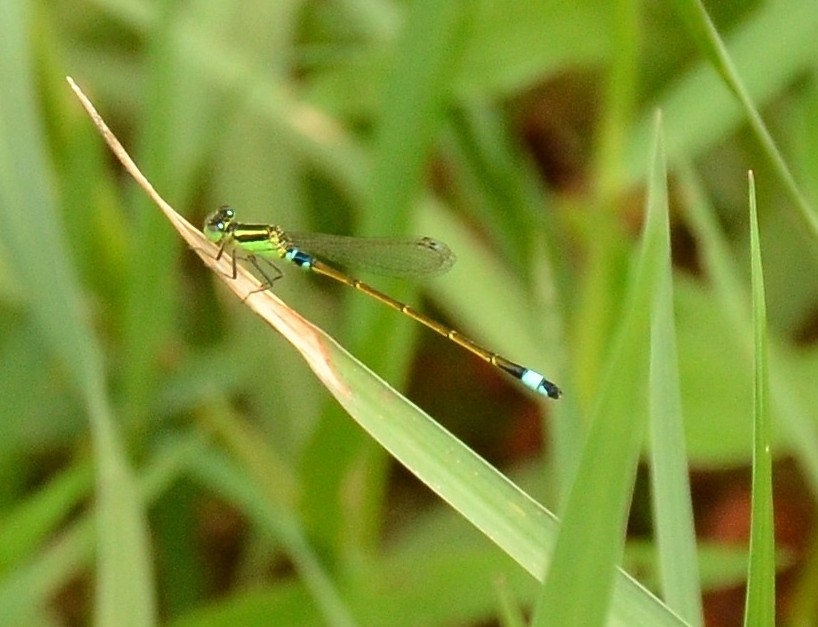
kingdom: Animalia
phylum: Arthropoda
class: Insecta
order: Odonata
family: Coenagrionidae
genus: Ischnura
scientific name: Ischnura senegalensis
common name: Tropical bluetail
